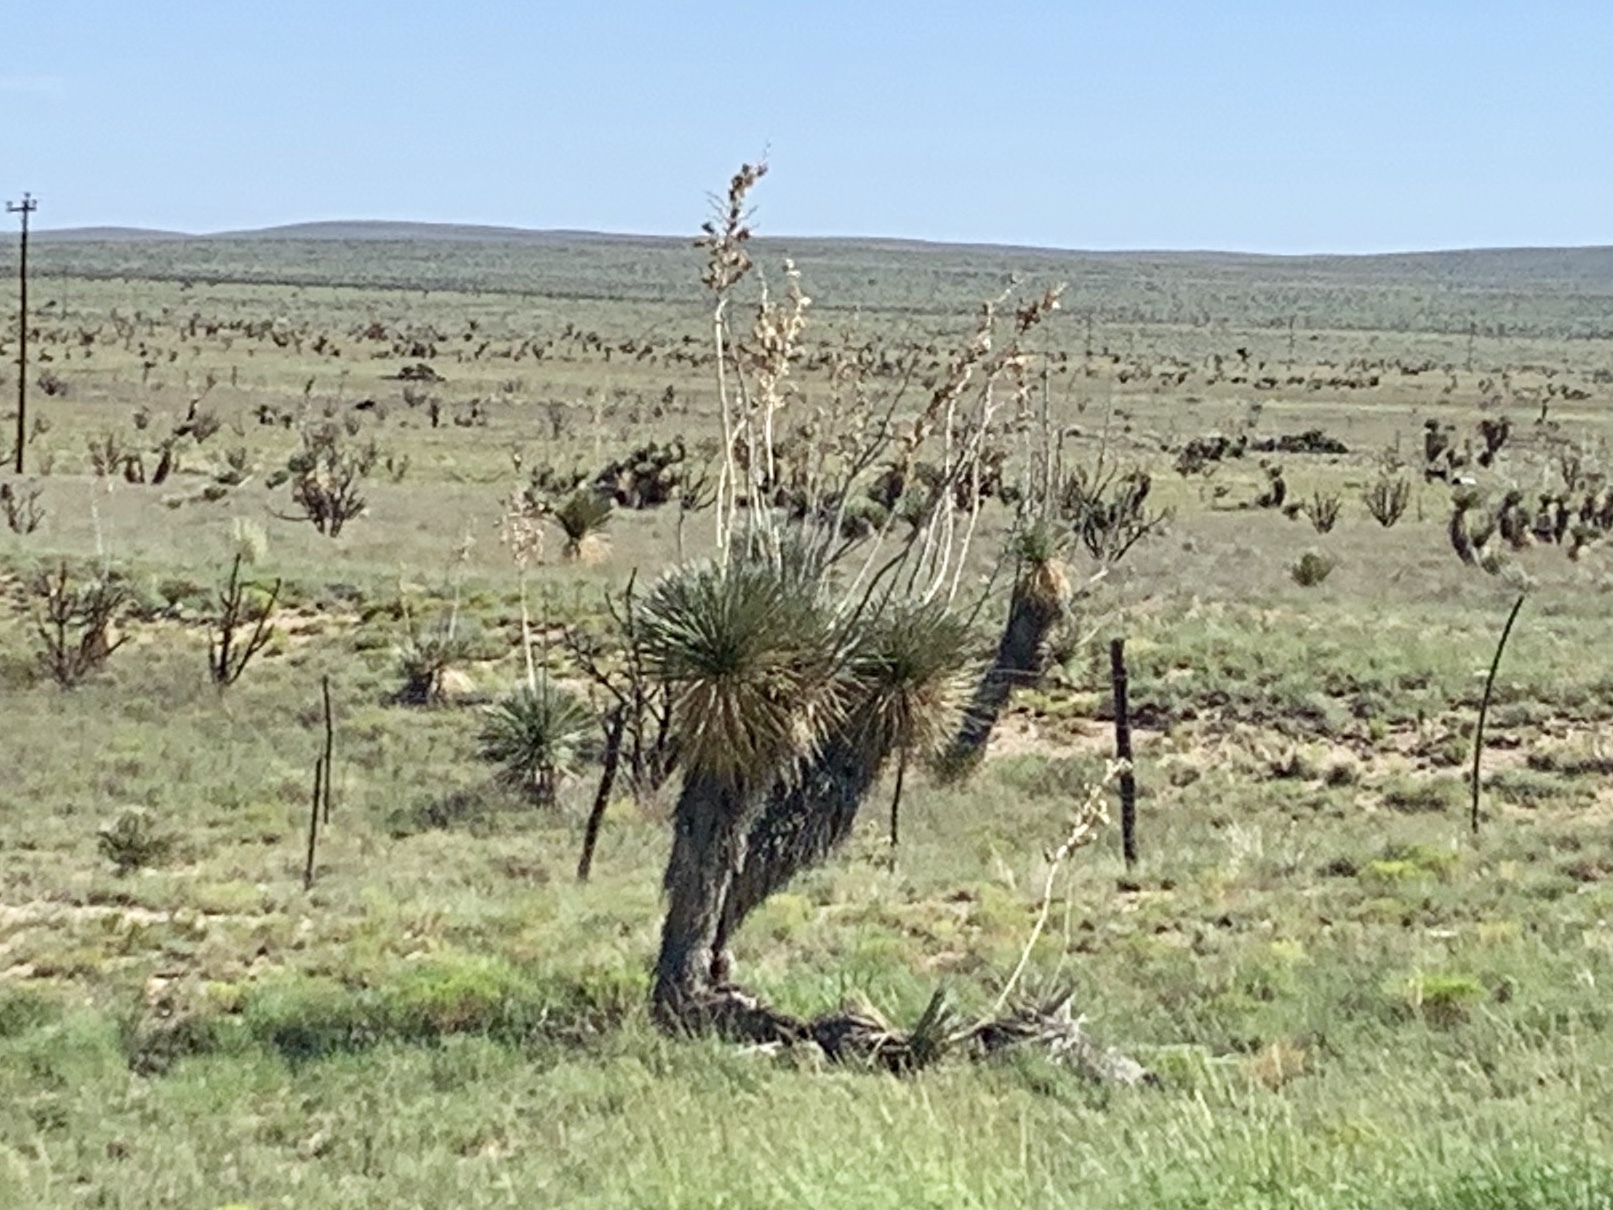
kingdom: Plantae
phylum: Tracheophyta
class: Liliopsida
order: Asparagales
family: Asparagaceae
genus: Yucca
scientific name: Yucca elata
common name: Palmella
